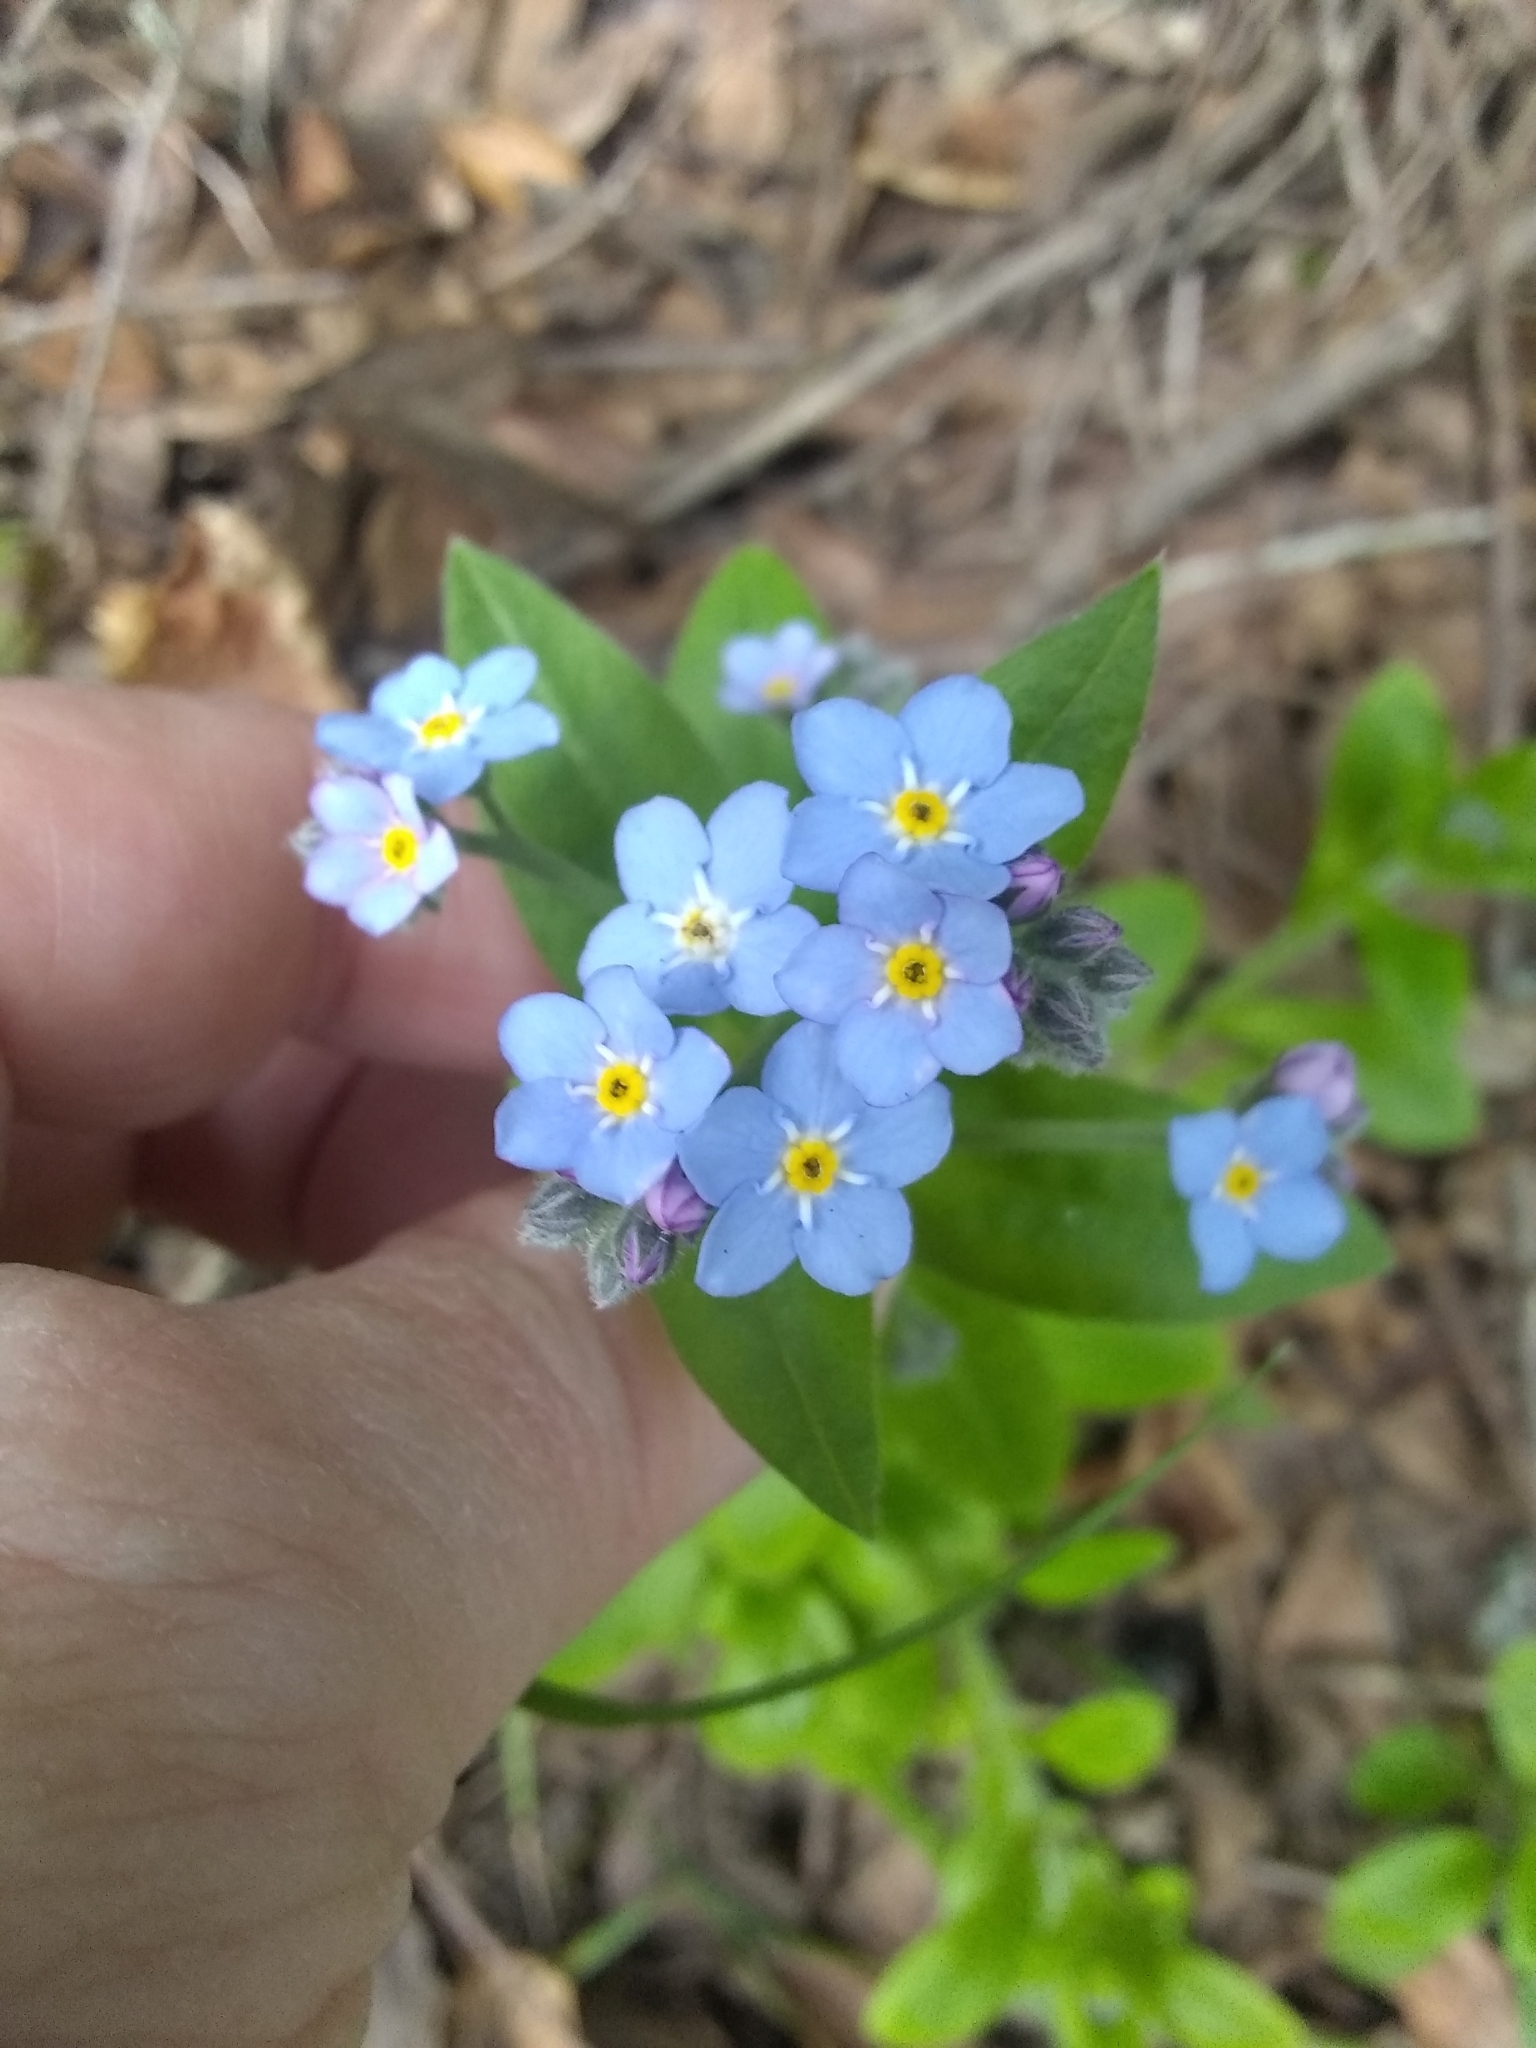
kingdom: Plantae
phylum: Tracheophyta
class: Magnoliopsida
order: Boraginales
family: Boraginaceae
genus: Myosotis
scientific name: Myosotis latifolia
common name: Broadleaf forget-me-not
